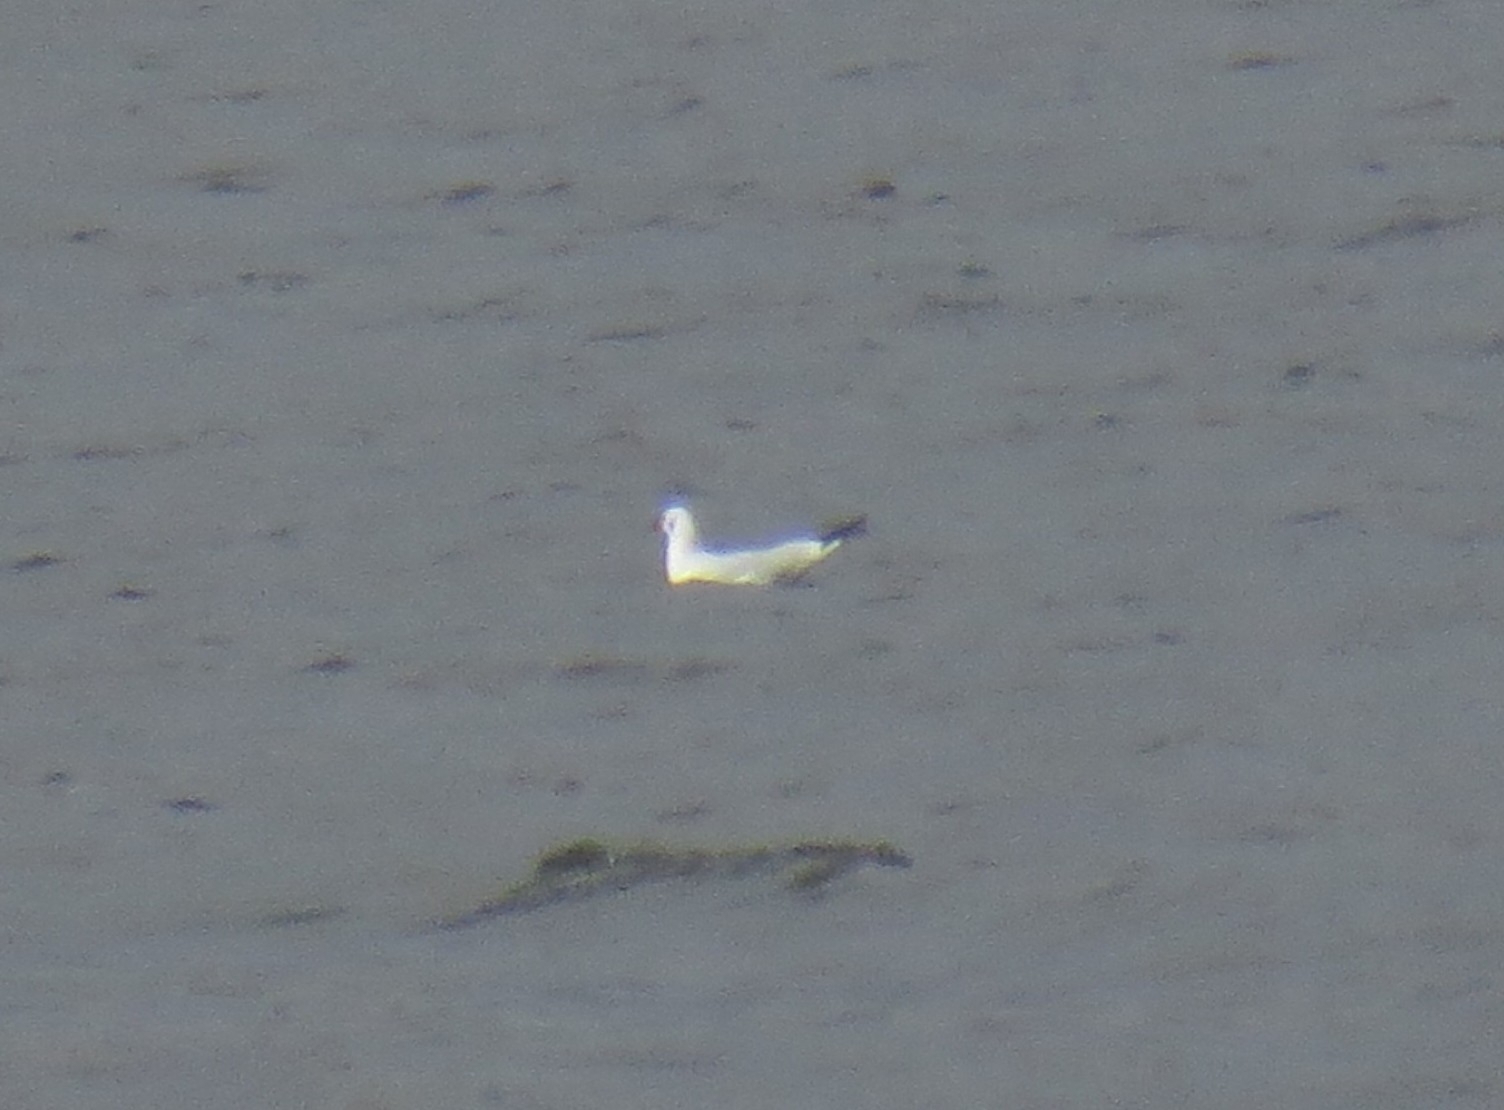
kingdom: Animalia
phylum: Chordata
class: Aves
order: Charadriiformes
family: Laridae
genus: Chroicocephalus
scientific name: Chroicocephalus ridibundus
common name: Black-headed gull
